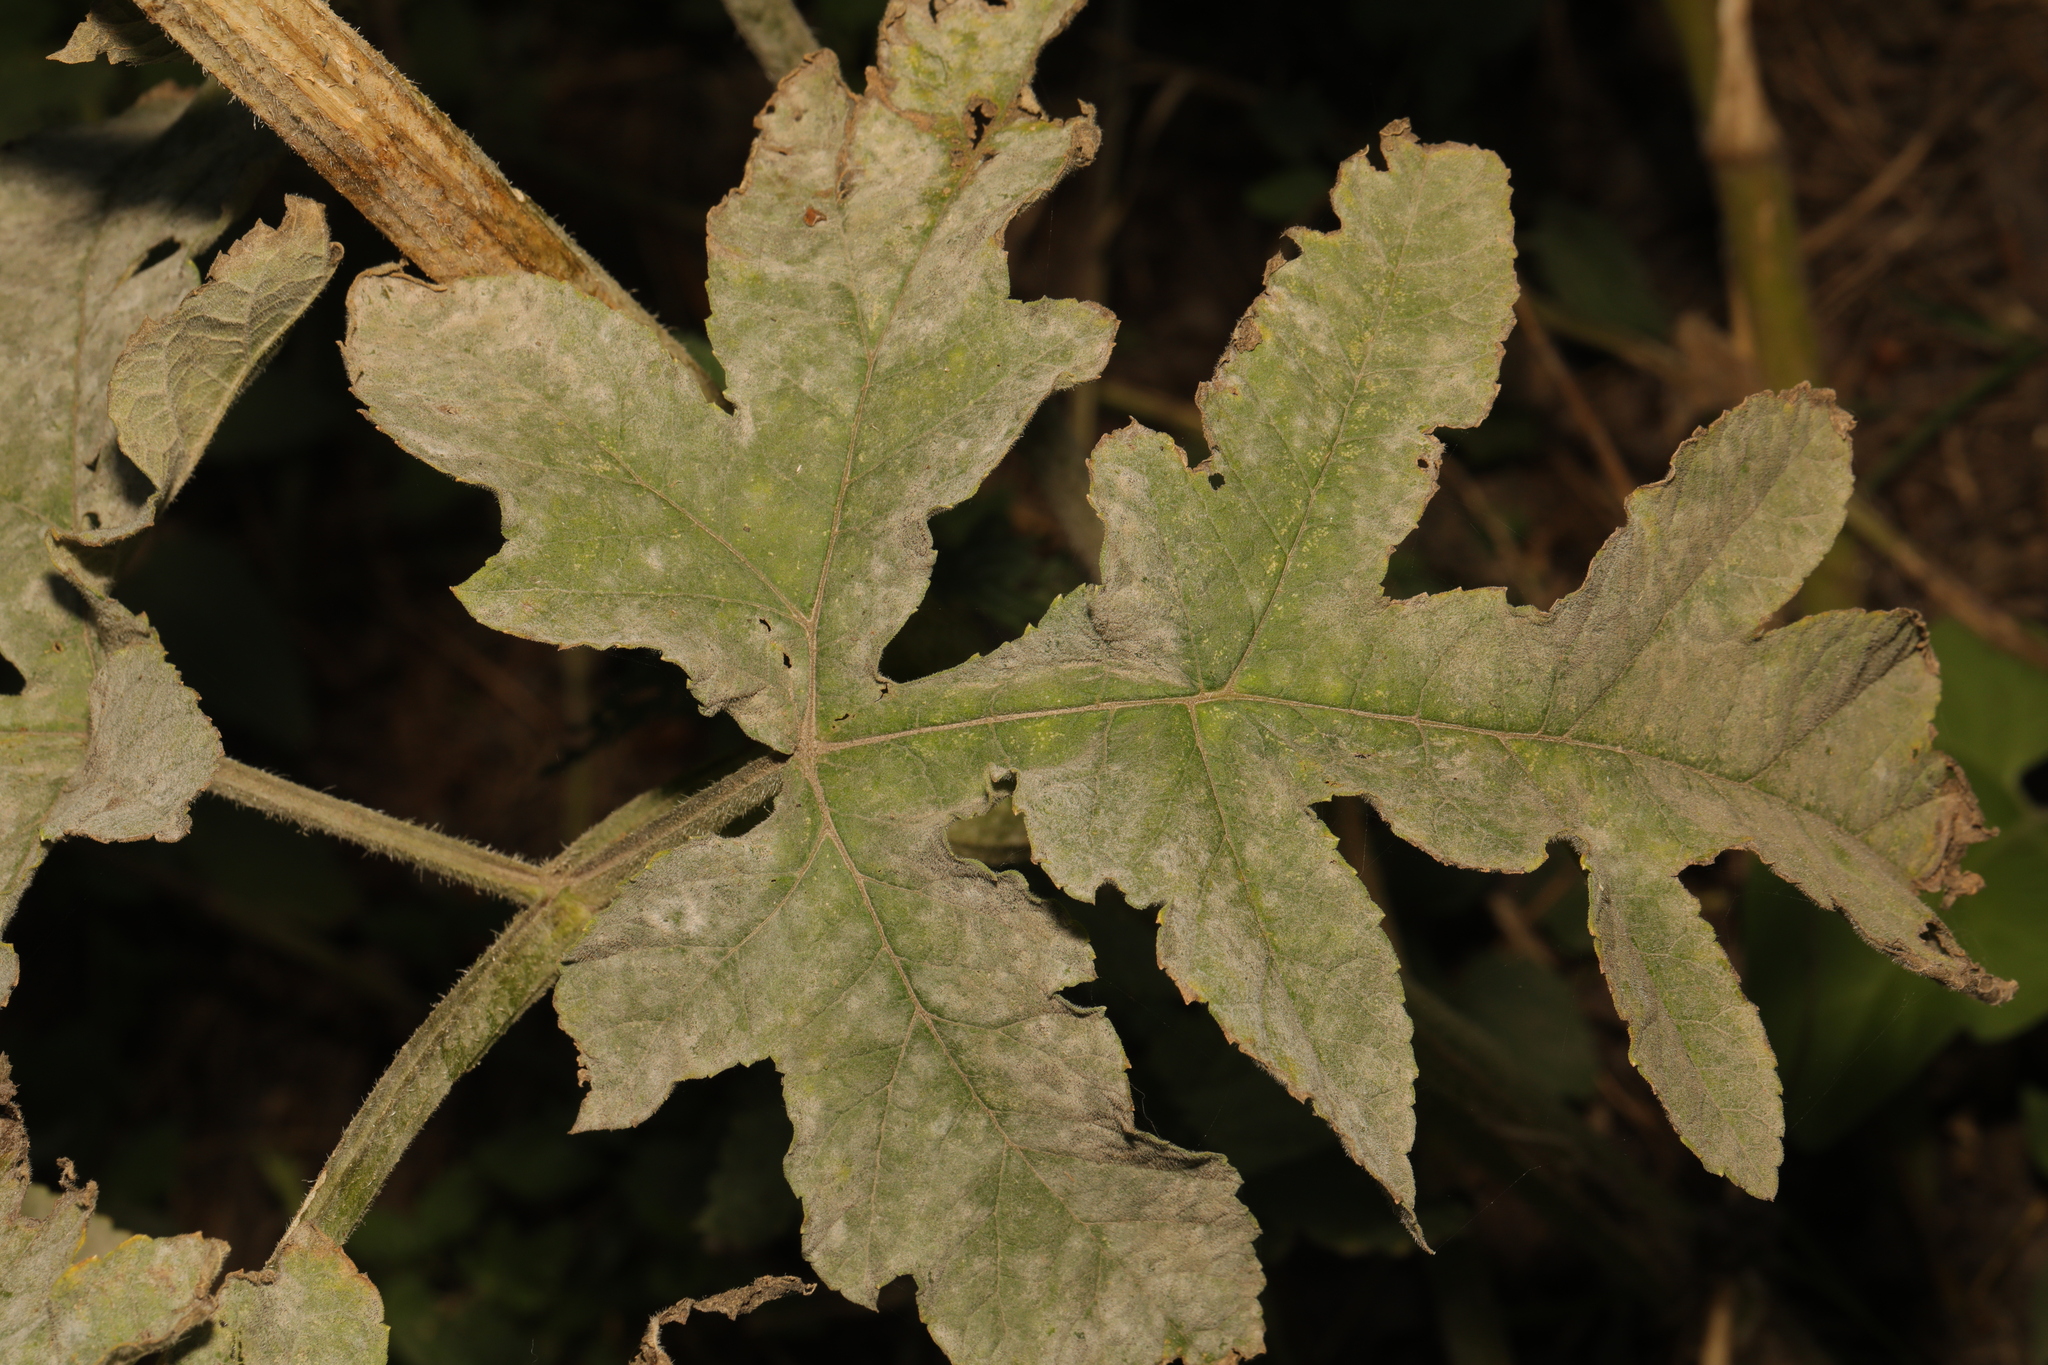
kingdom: Plantae
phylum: Tracheophyta
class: Magnoliopsida
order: Apiales
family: Apiaceae
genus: Heracleum
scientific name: Heracleum sphondylium
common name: Hogweed
